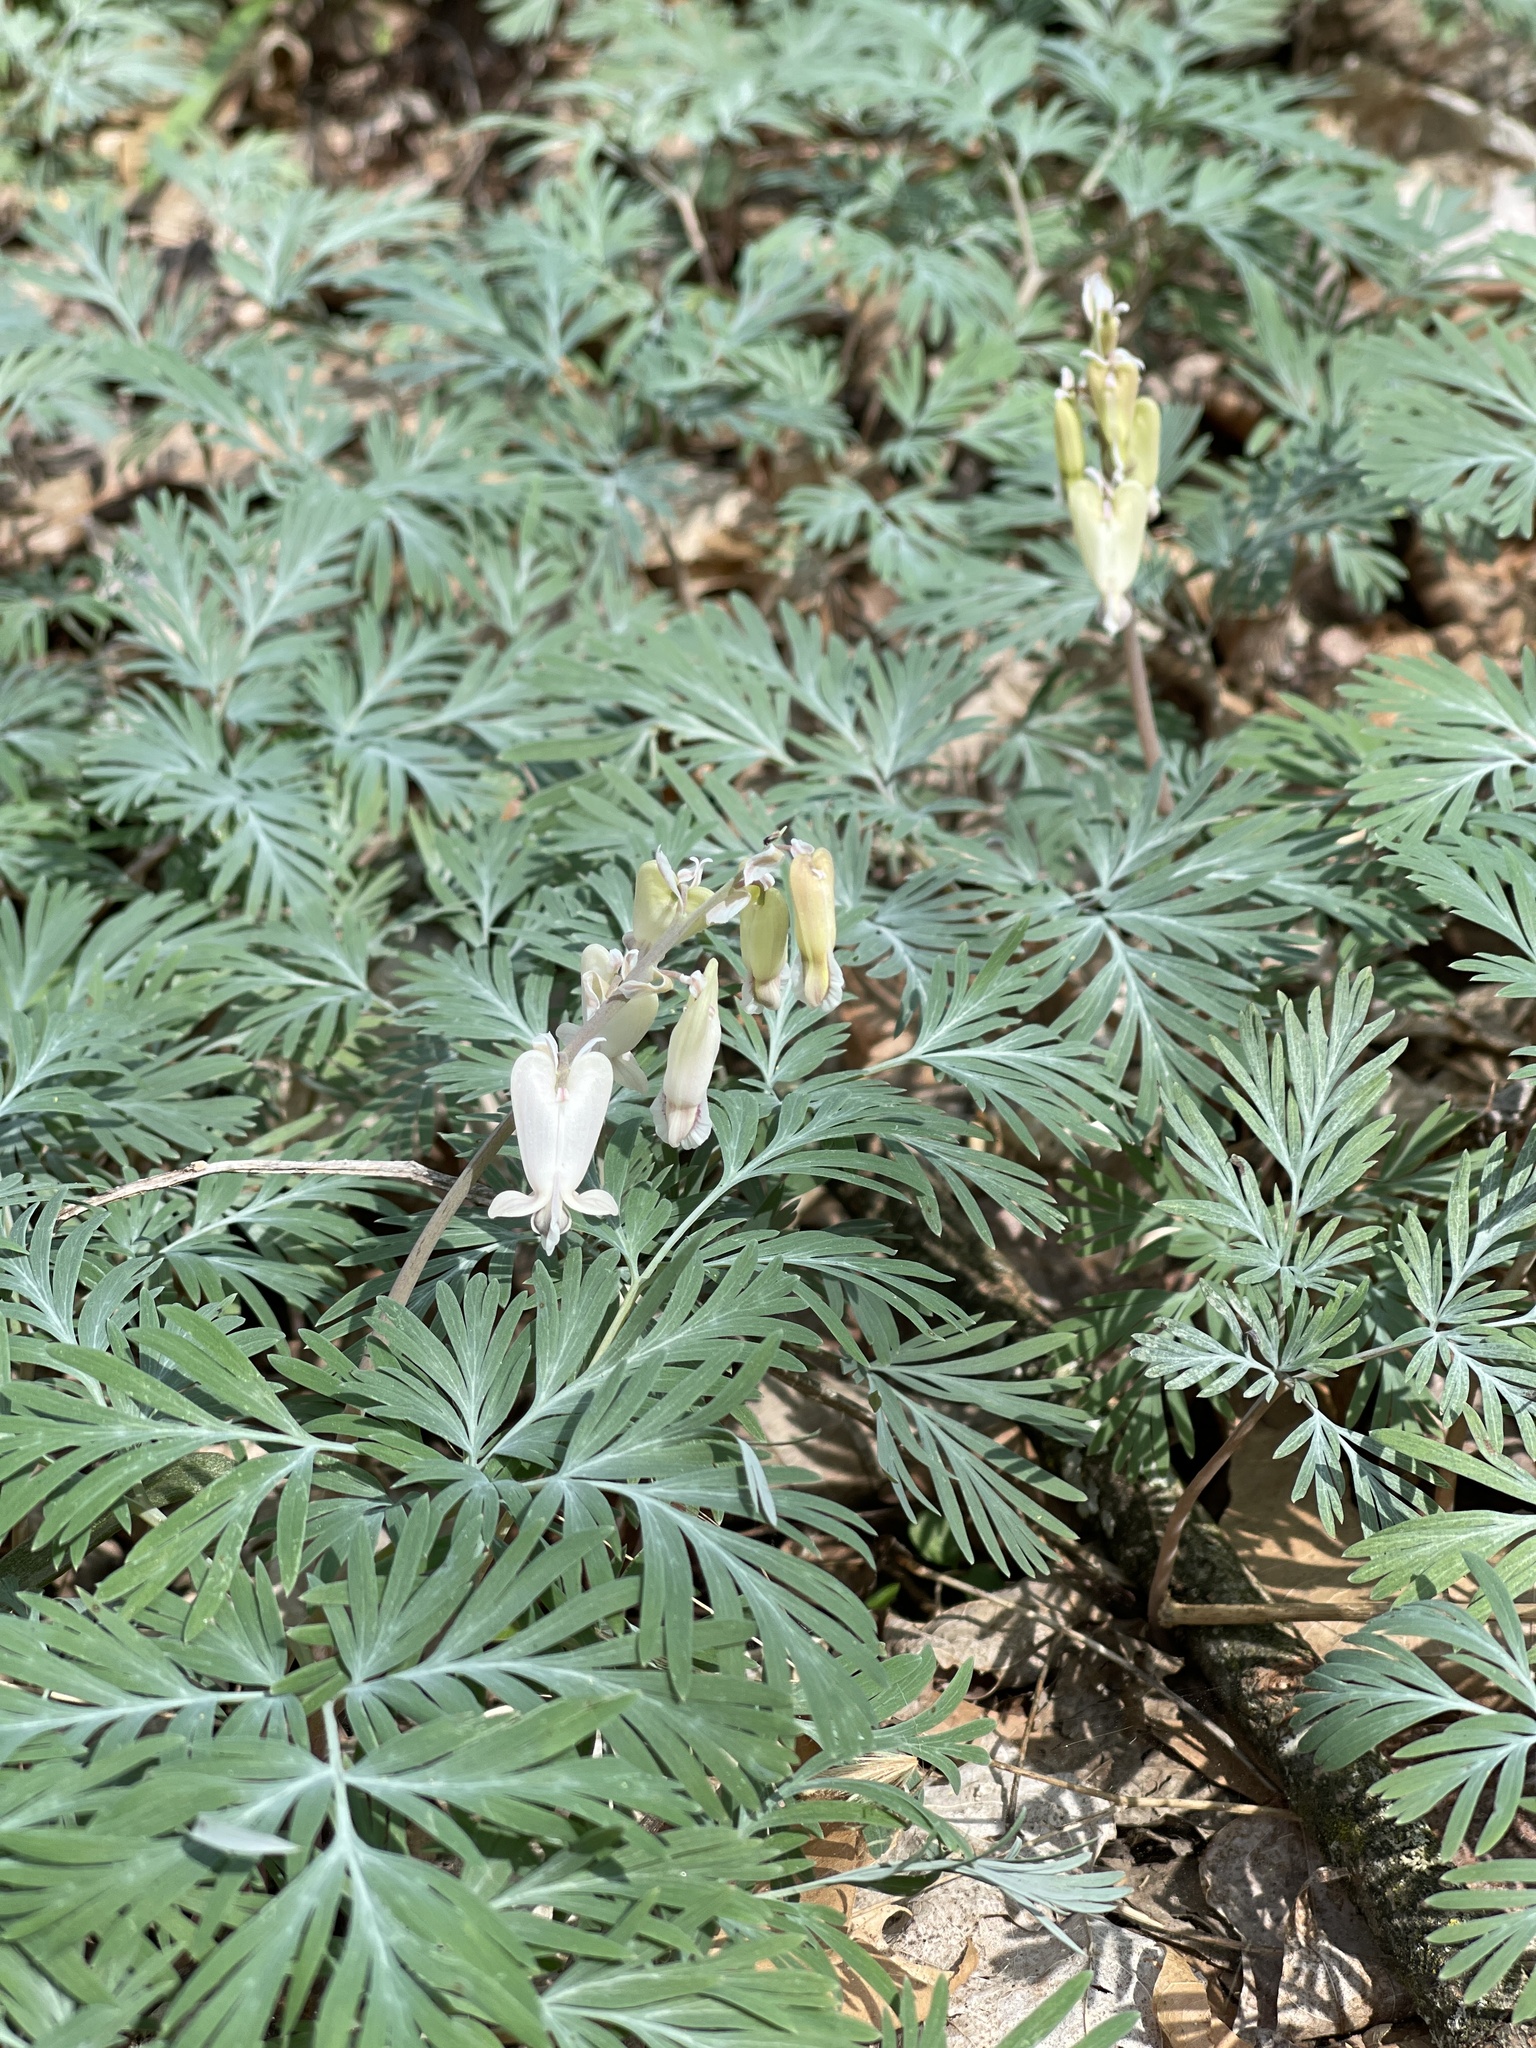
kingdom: Plantae
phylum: Tracheophyta
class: Magnoliopsida
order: Ranunculales
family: Papaveraceae
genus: Dicentra
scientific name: Dicentra canadensis
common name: Squirrel-corn
